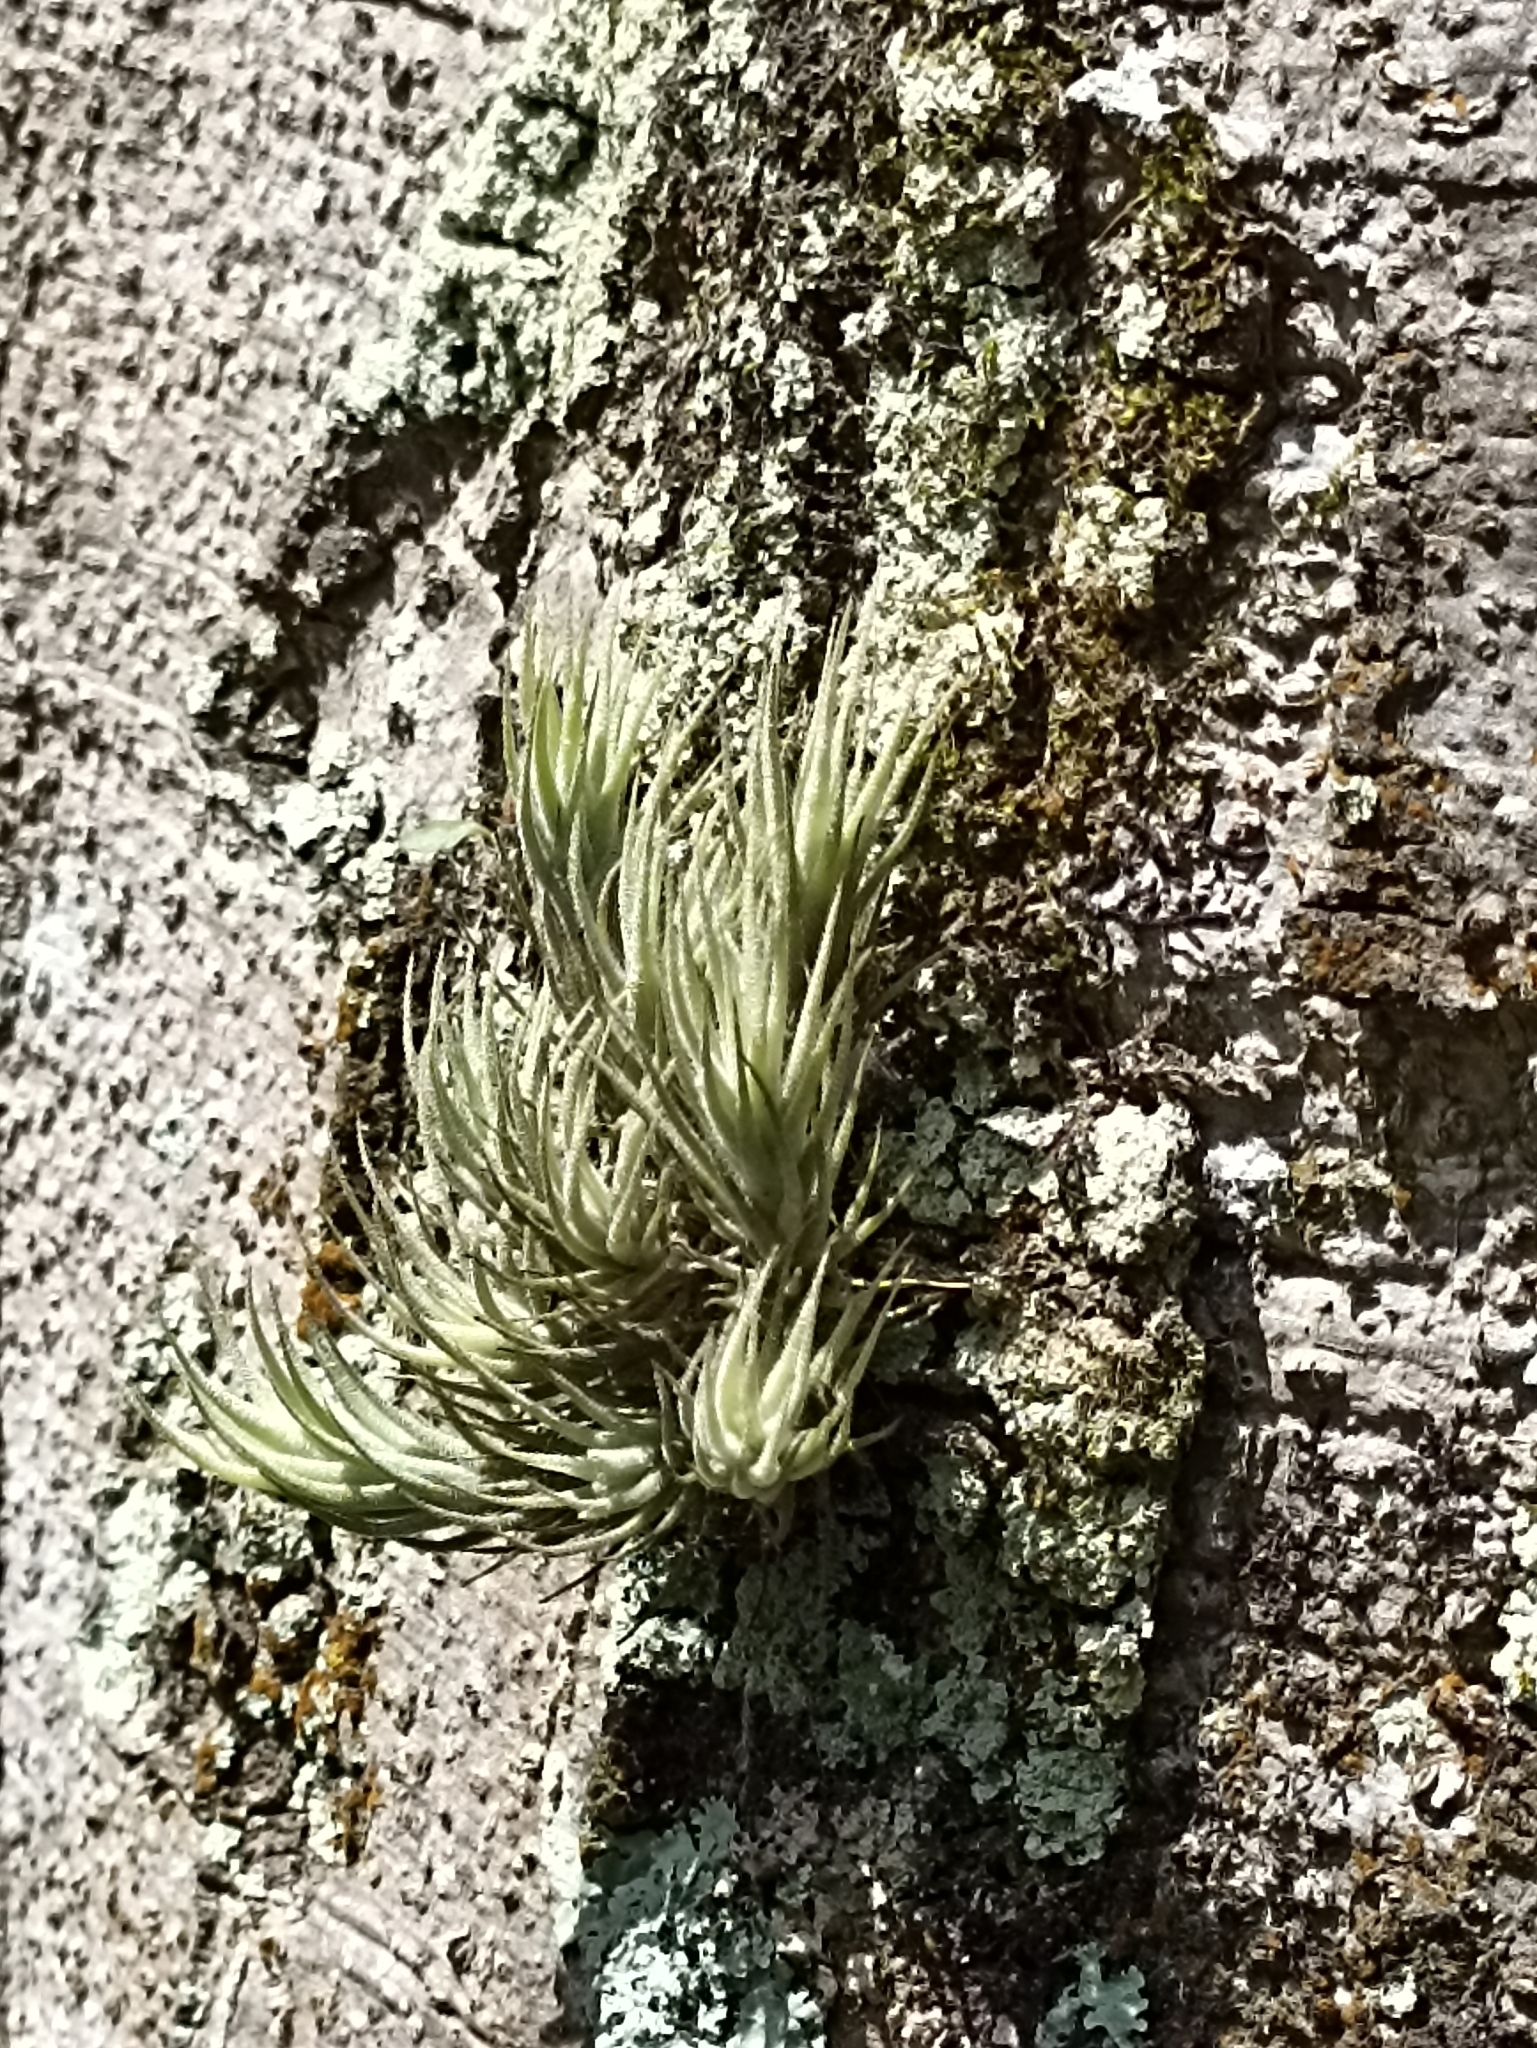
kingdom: Plantae
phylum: Tracheophyta
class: Liliopsida
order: Poales
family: Bromeliaceae
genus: Tillandsia
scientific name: Tillandsia tricholepis
